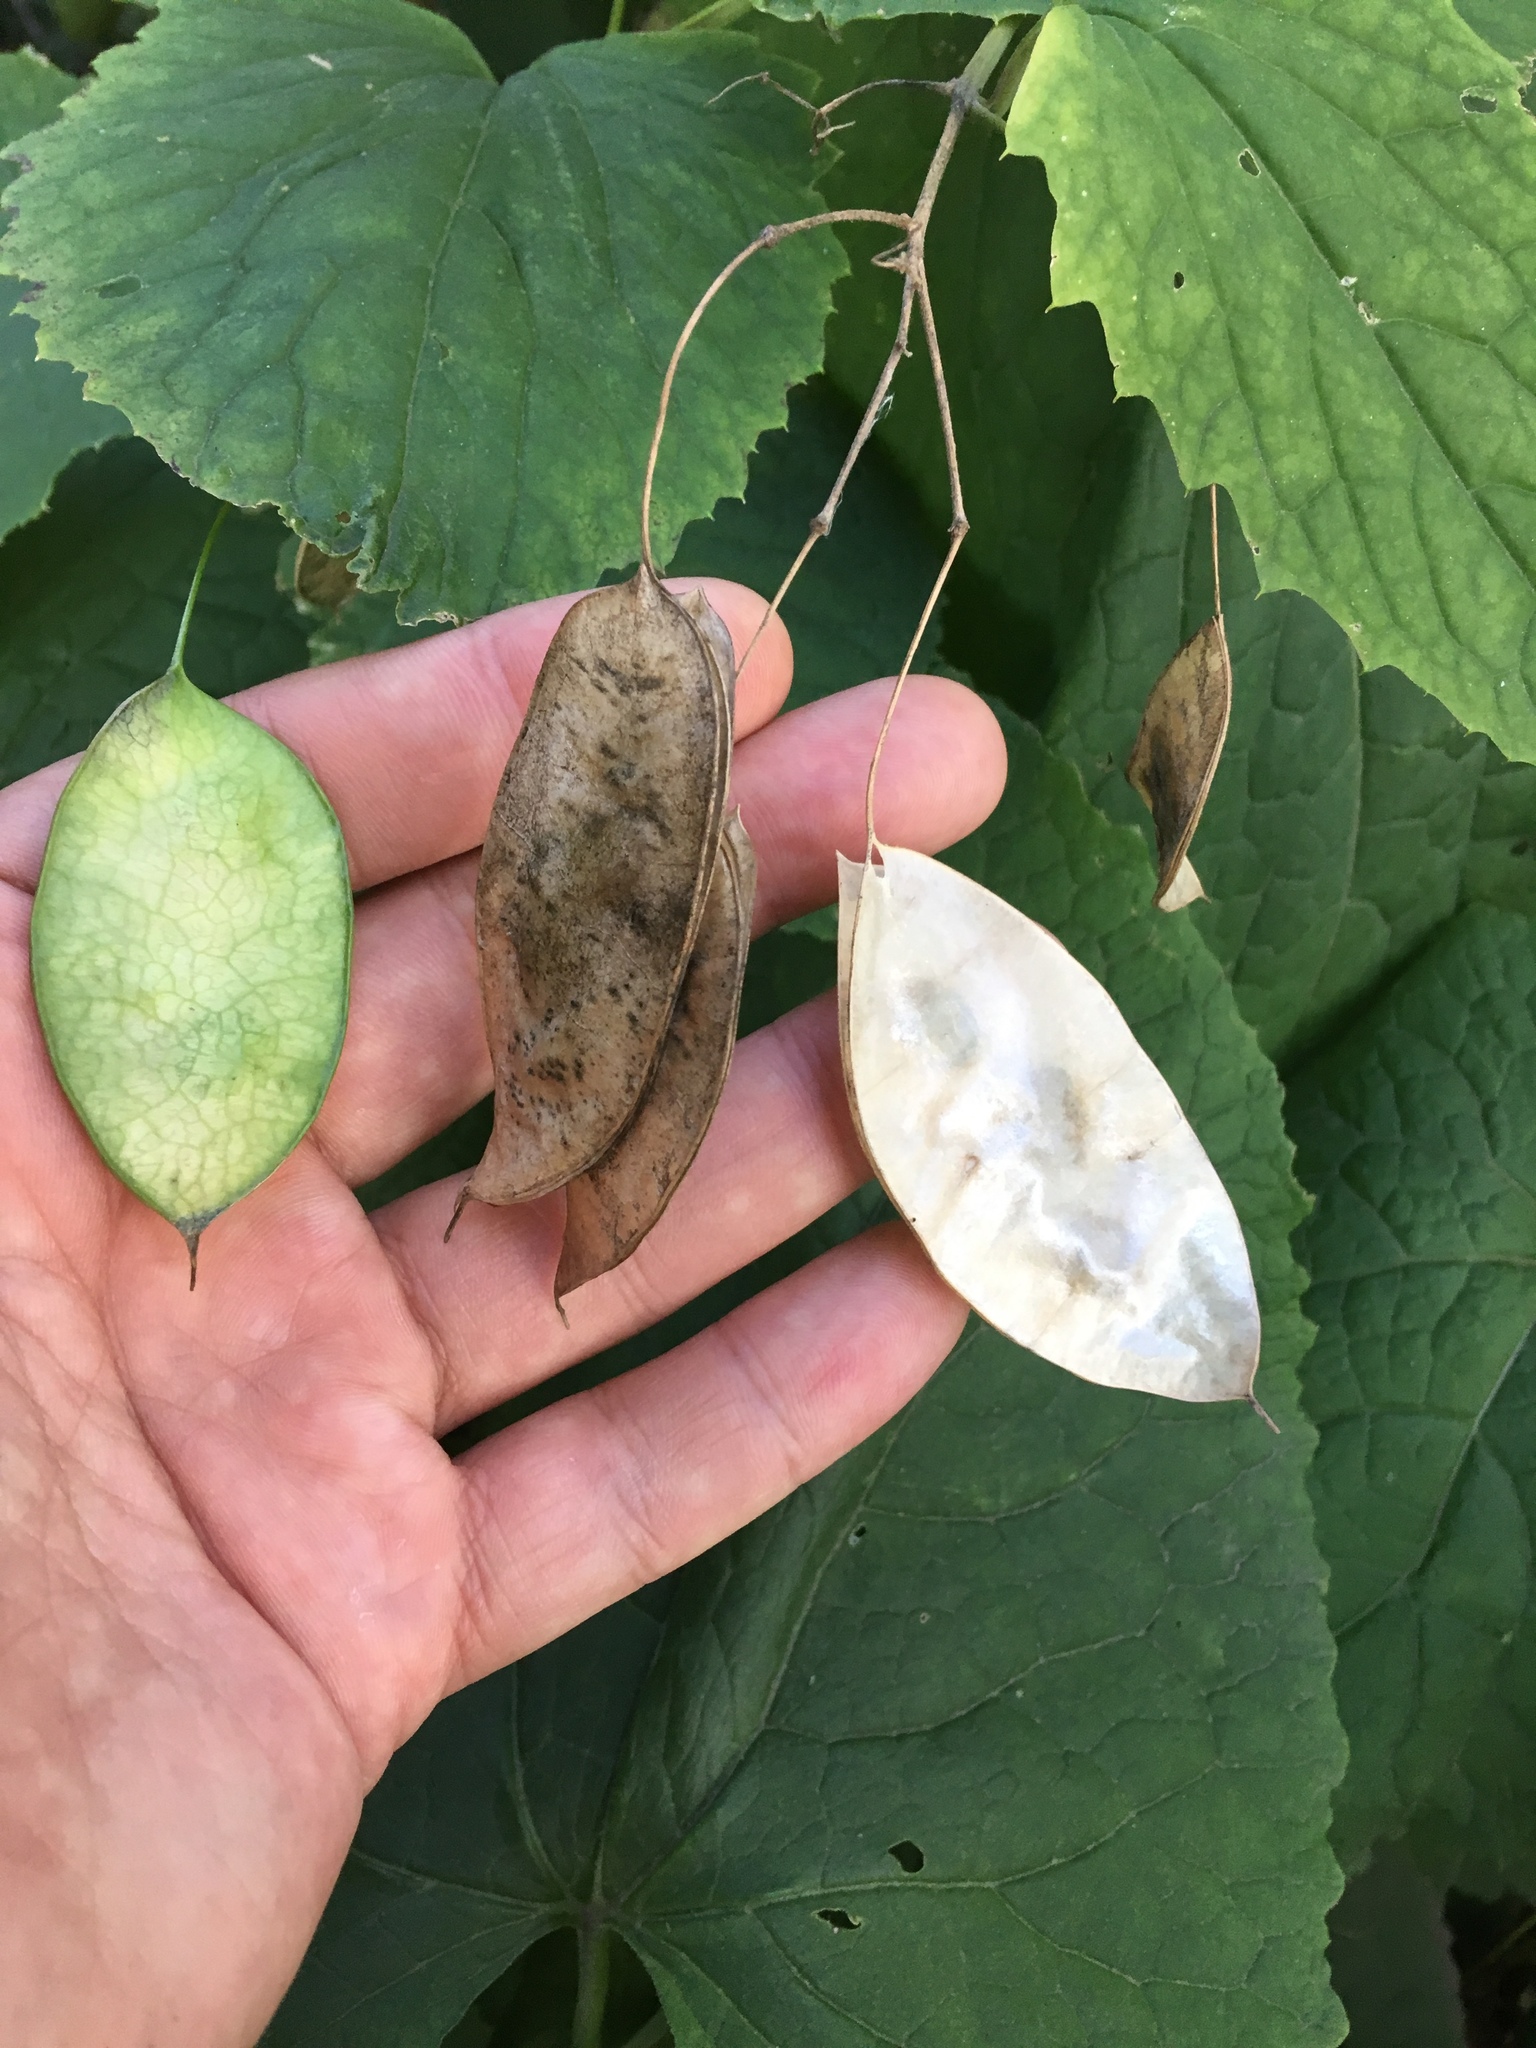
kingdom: Plantae
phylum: Tracheophyta
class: Magnoliopsida
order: Brassicales
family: Brassicaceae
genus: Lunaria
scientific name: Lunaria rediviva
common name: Perennial honesty
